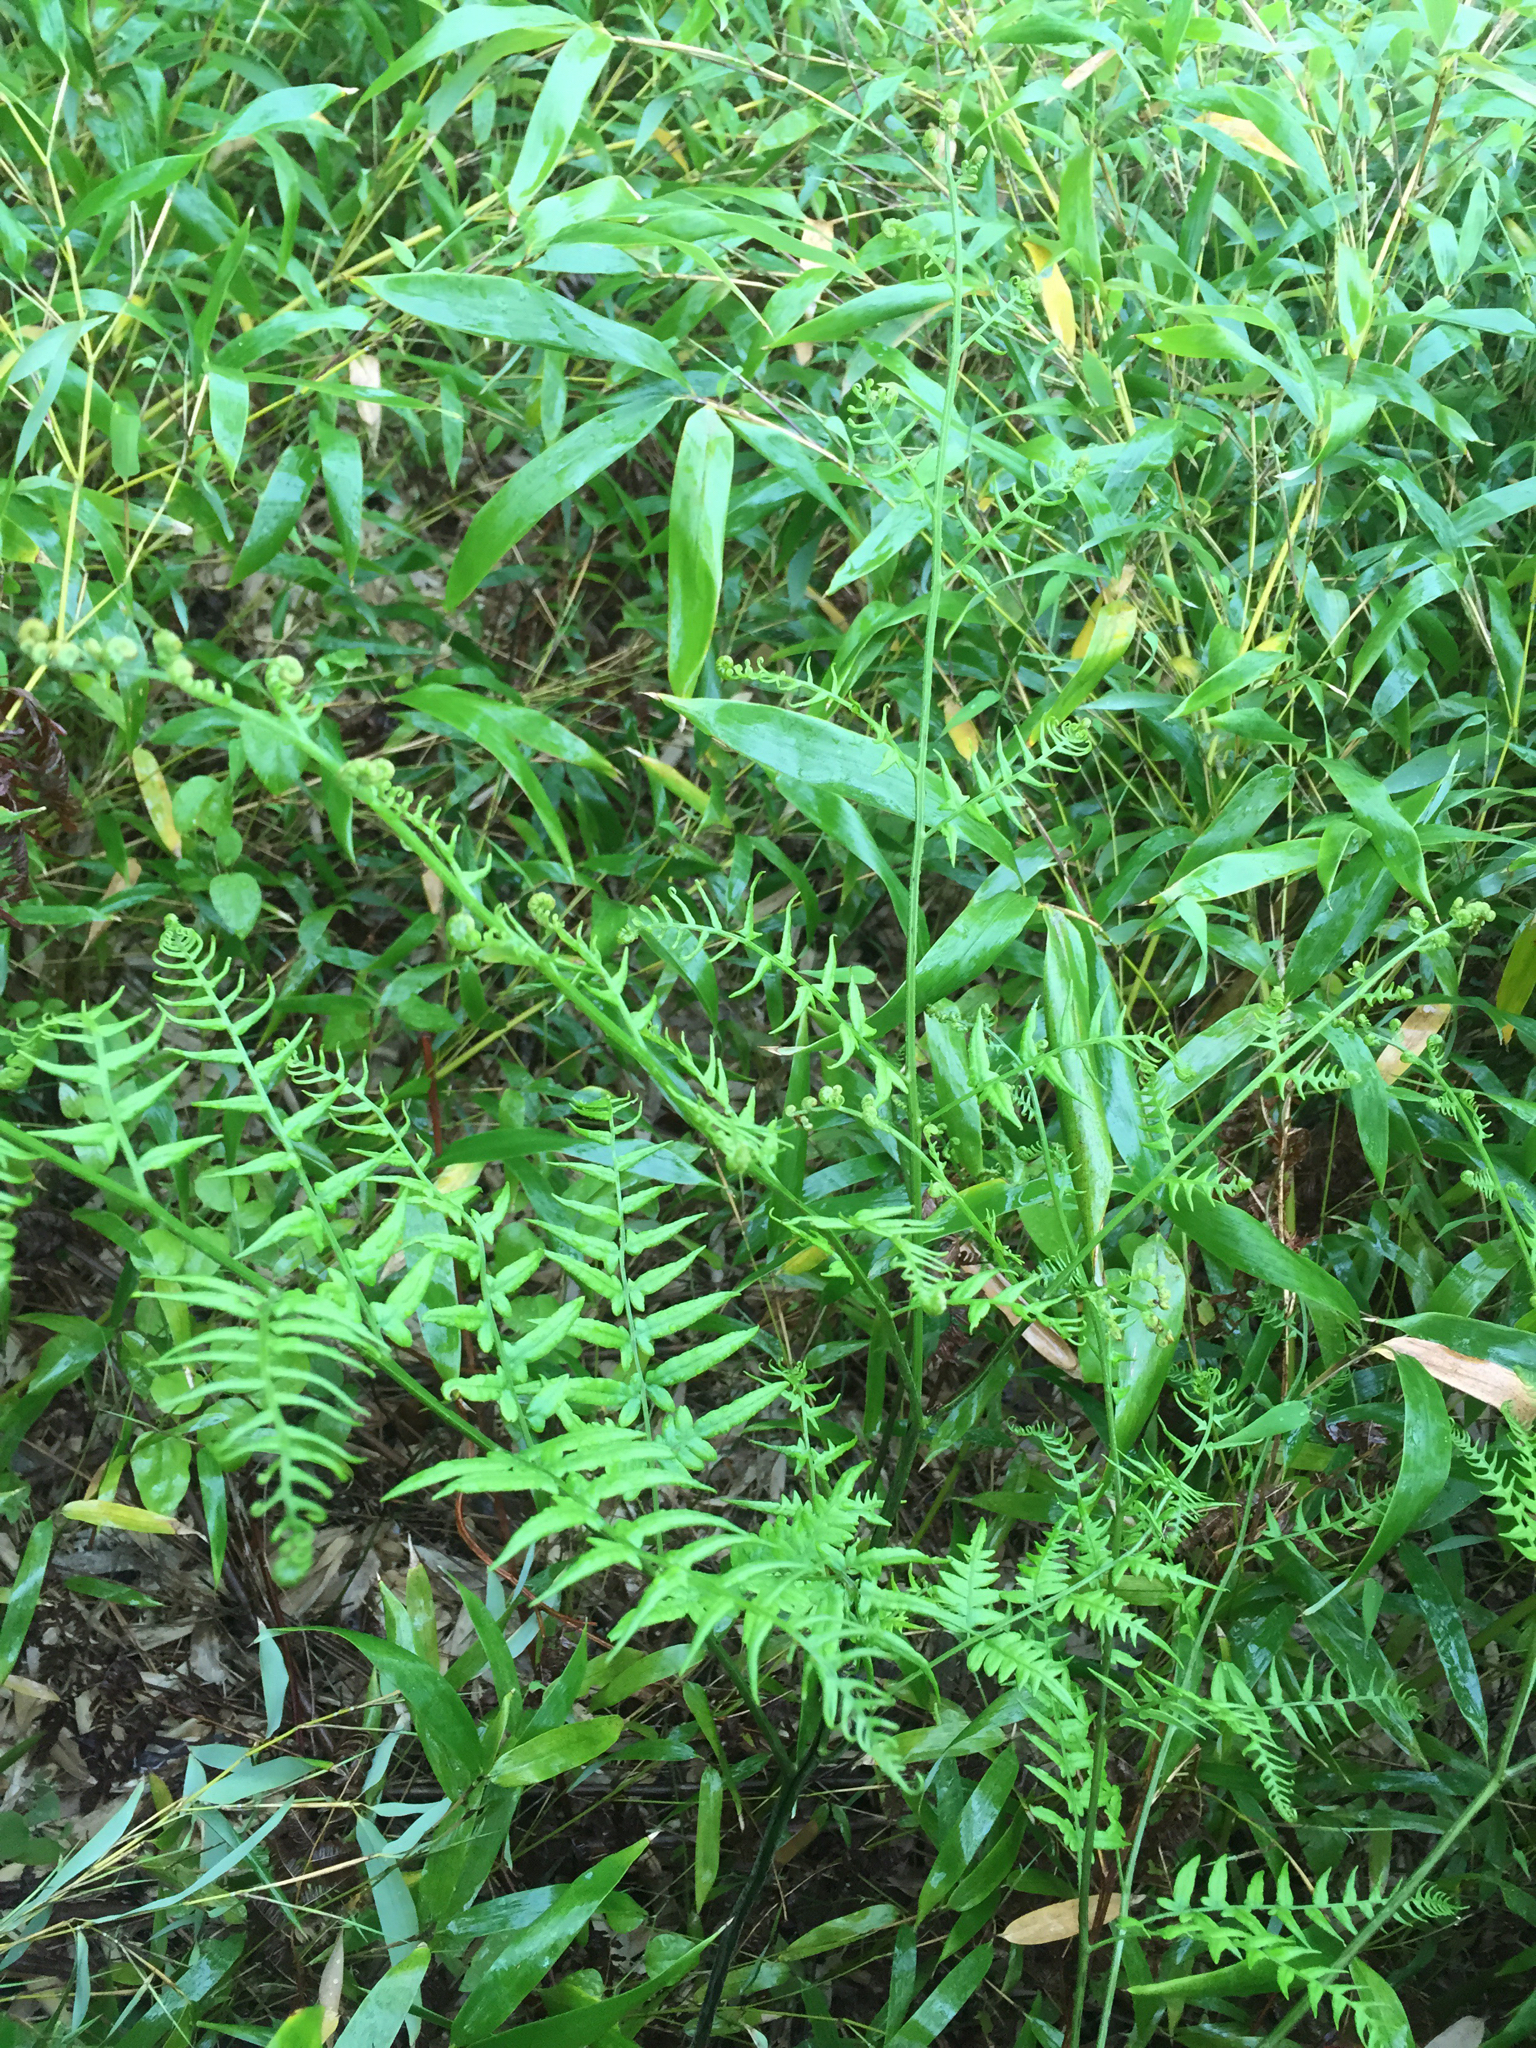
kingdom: Plantae
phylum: Tracheophyta
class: Polypodiopsida
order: Polypodiales
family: Dennstaedtiaceae
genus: Pteridium
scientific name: Pteridium aquilinum
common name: Bracken
